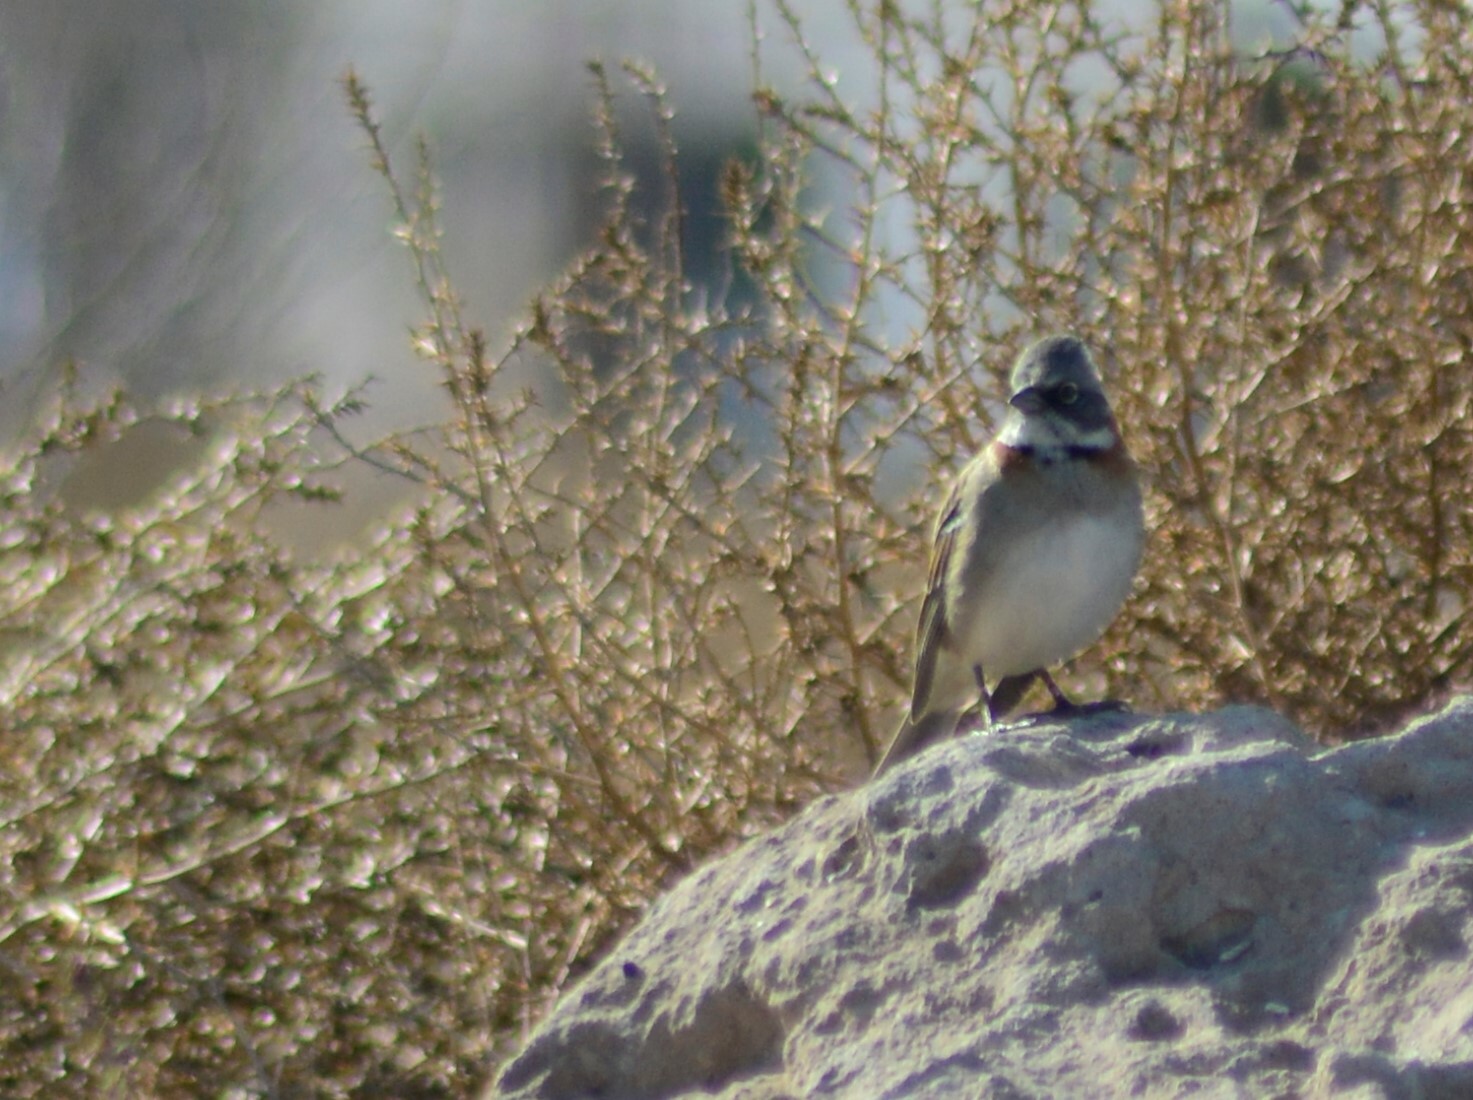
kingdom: Animalia
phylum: Chordata
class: Aves
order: Passeriformes
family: Passerellidae
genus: Zonotrichia
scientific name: Zonotrichia capensis
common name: Rufous-collared sparrow
